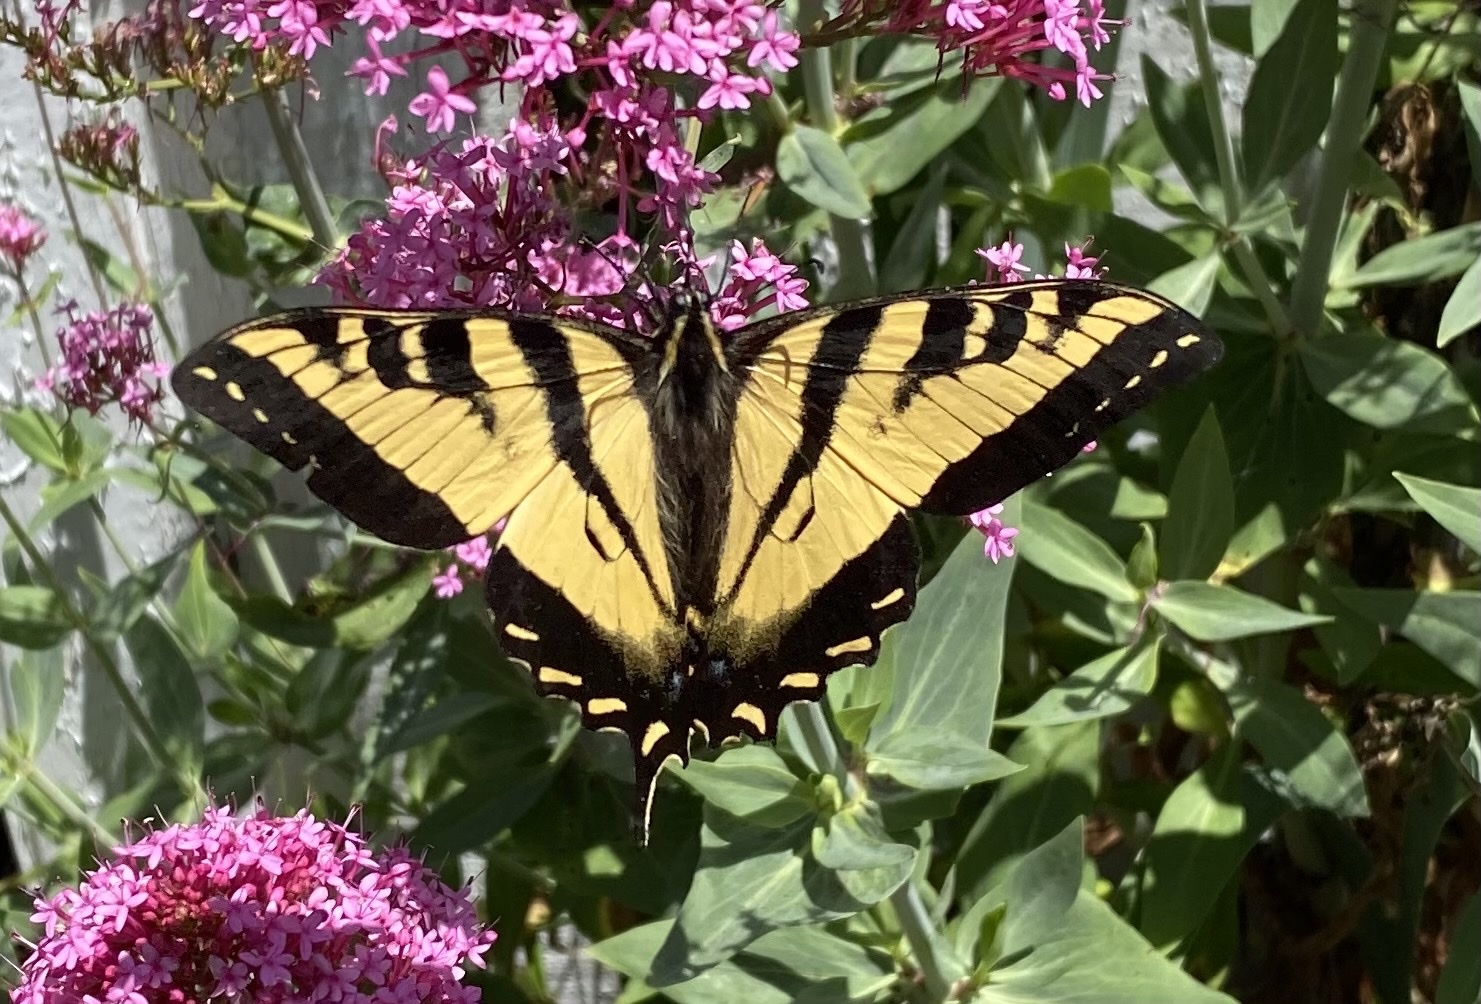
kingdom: Animalia
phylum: Arthropoda
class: Insecta
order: Lepidoptera
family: Papilionidae
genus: Papilio
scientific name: Papilio rutulus
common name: Western tiger swallowtail
